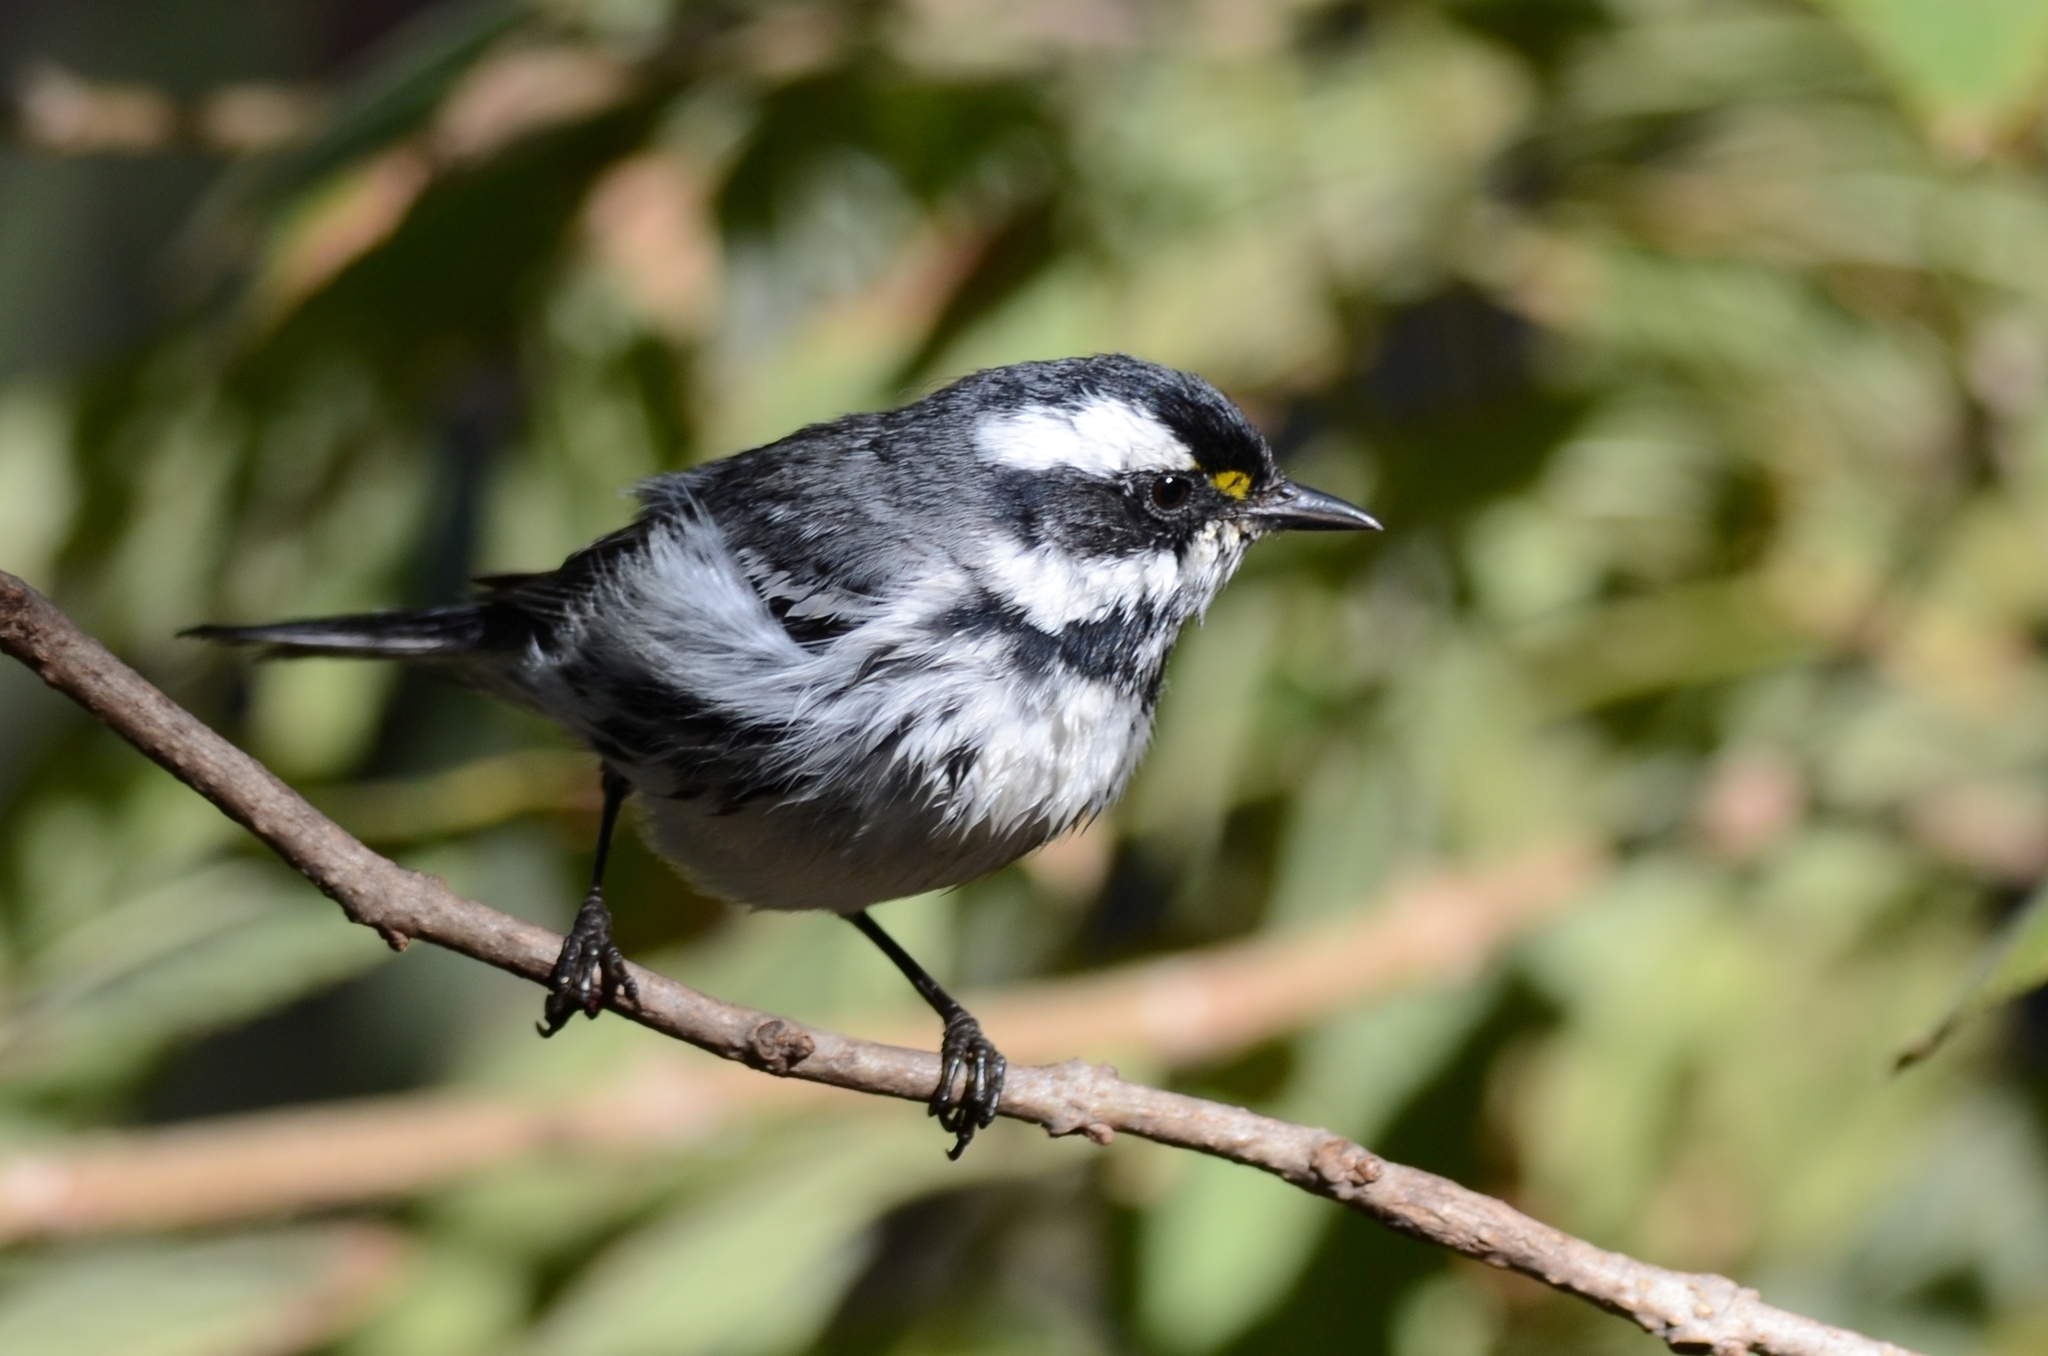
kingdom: Animalia
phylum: Chordata
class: Aves
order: Passeriformes
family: Parulidae
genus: Setophaga
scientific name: Setophaga nigrescens
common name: Black-throated gray warbler
